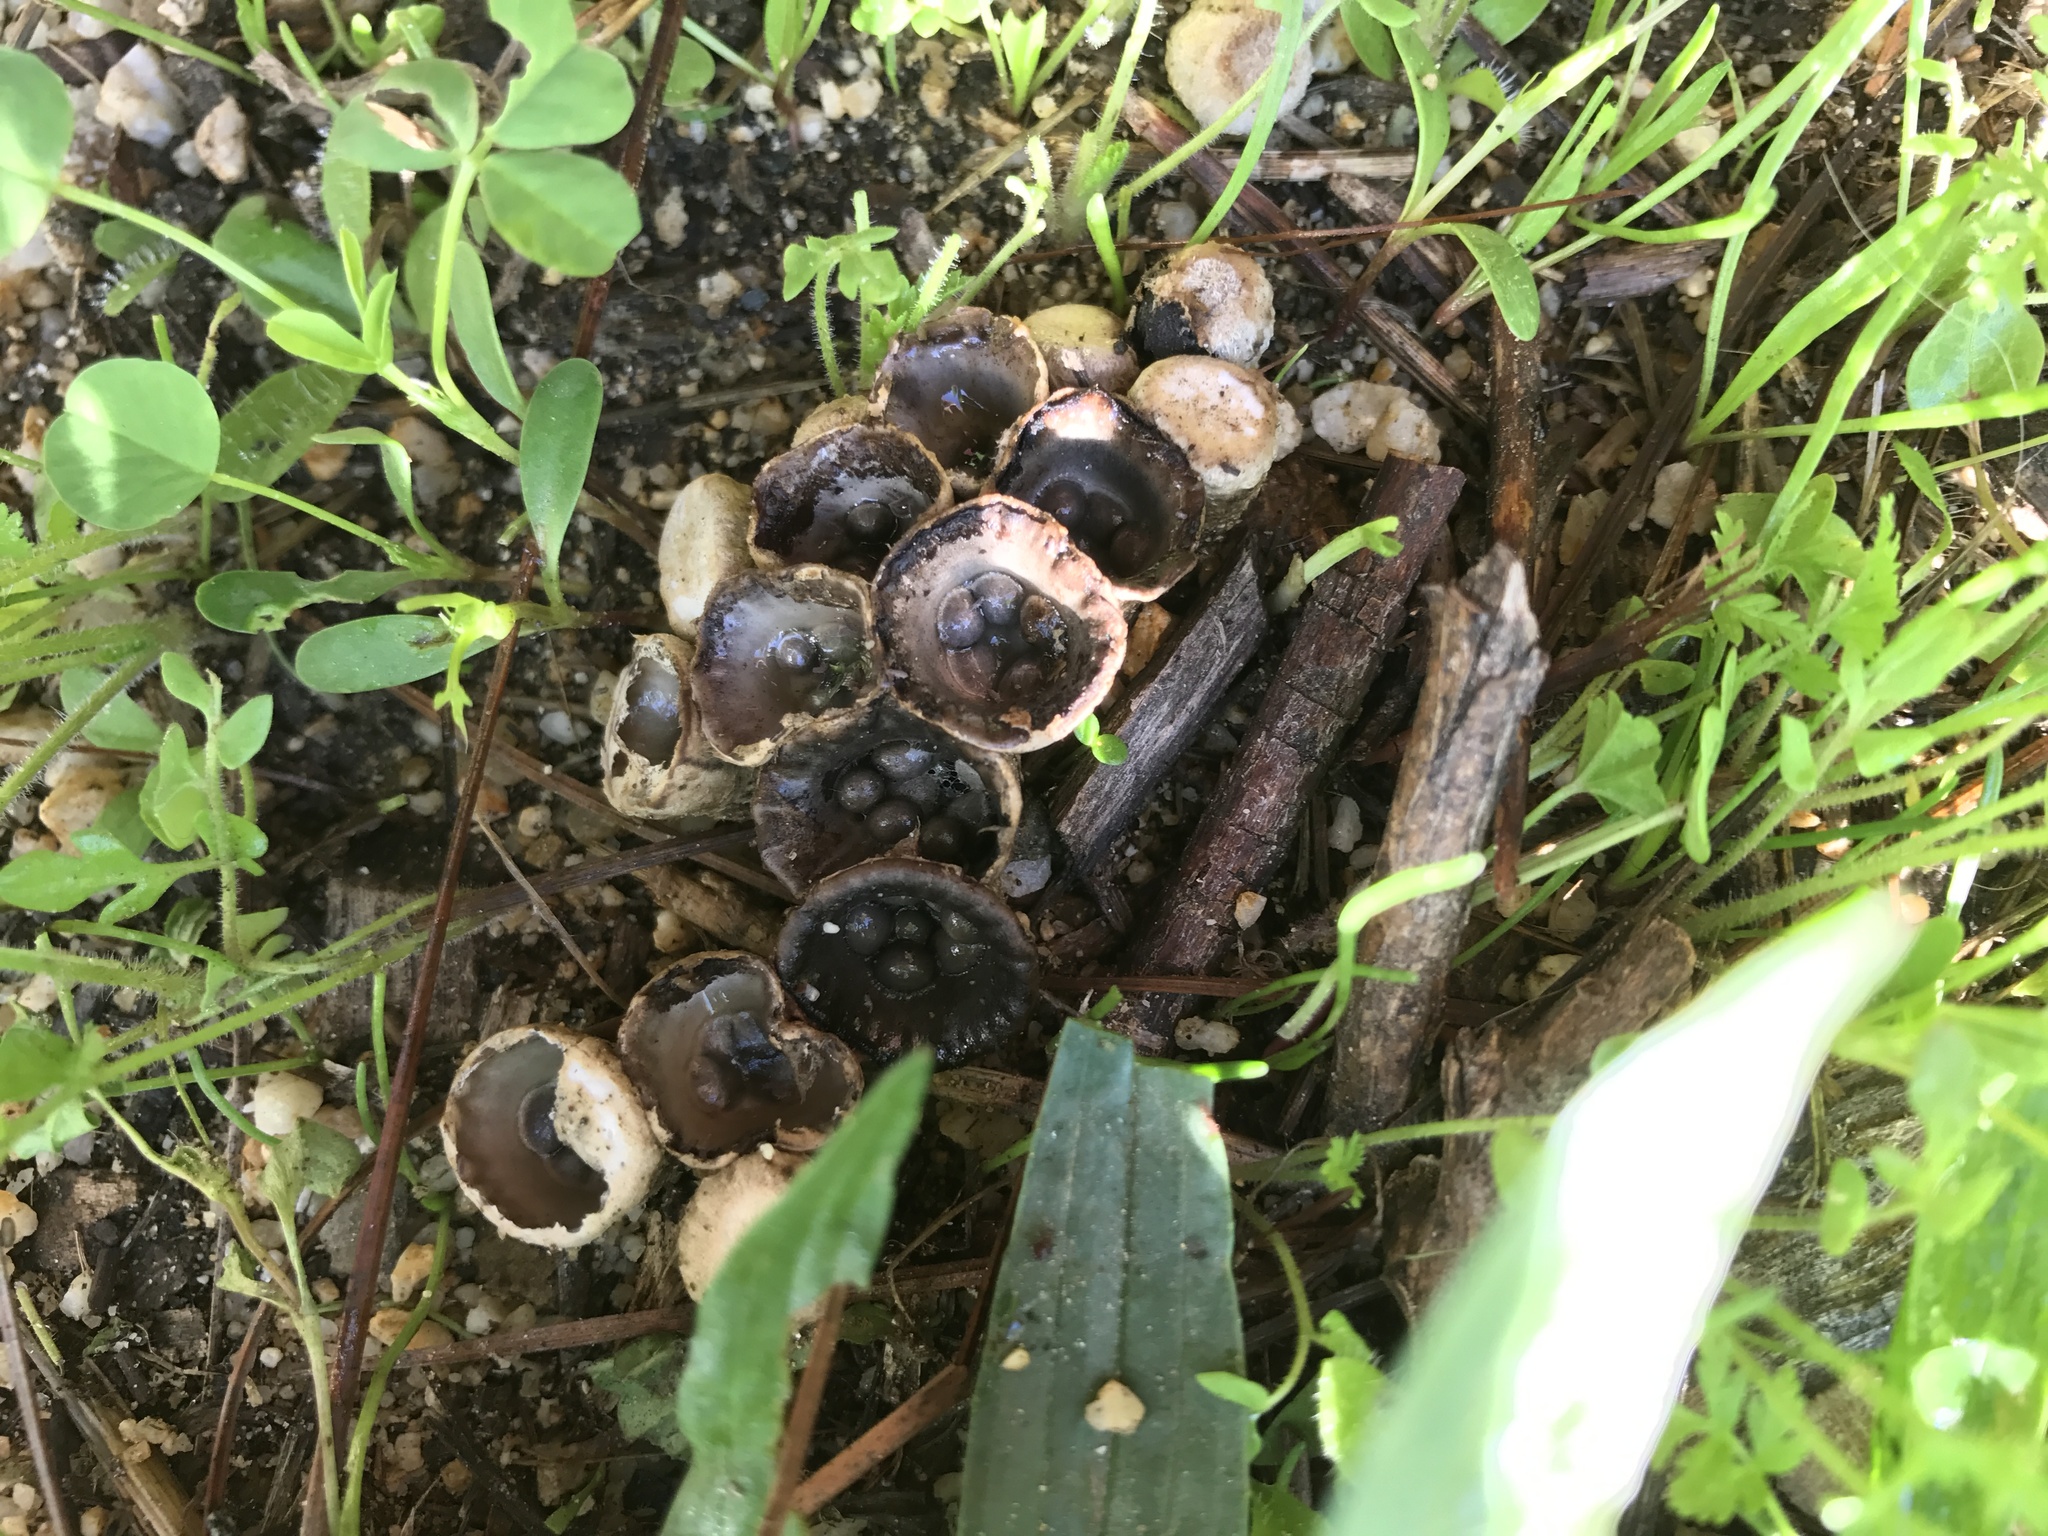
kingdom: Fungi
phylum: Basidiomycota
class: Agaricomycetes
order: Agaricales
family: Agaricaceae
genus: Cyathus
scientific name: Cyathus olla
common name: Field bird's nest
